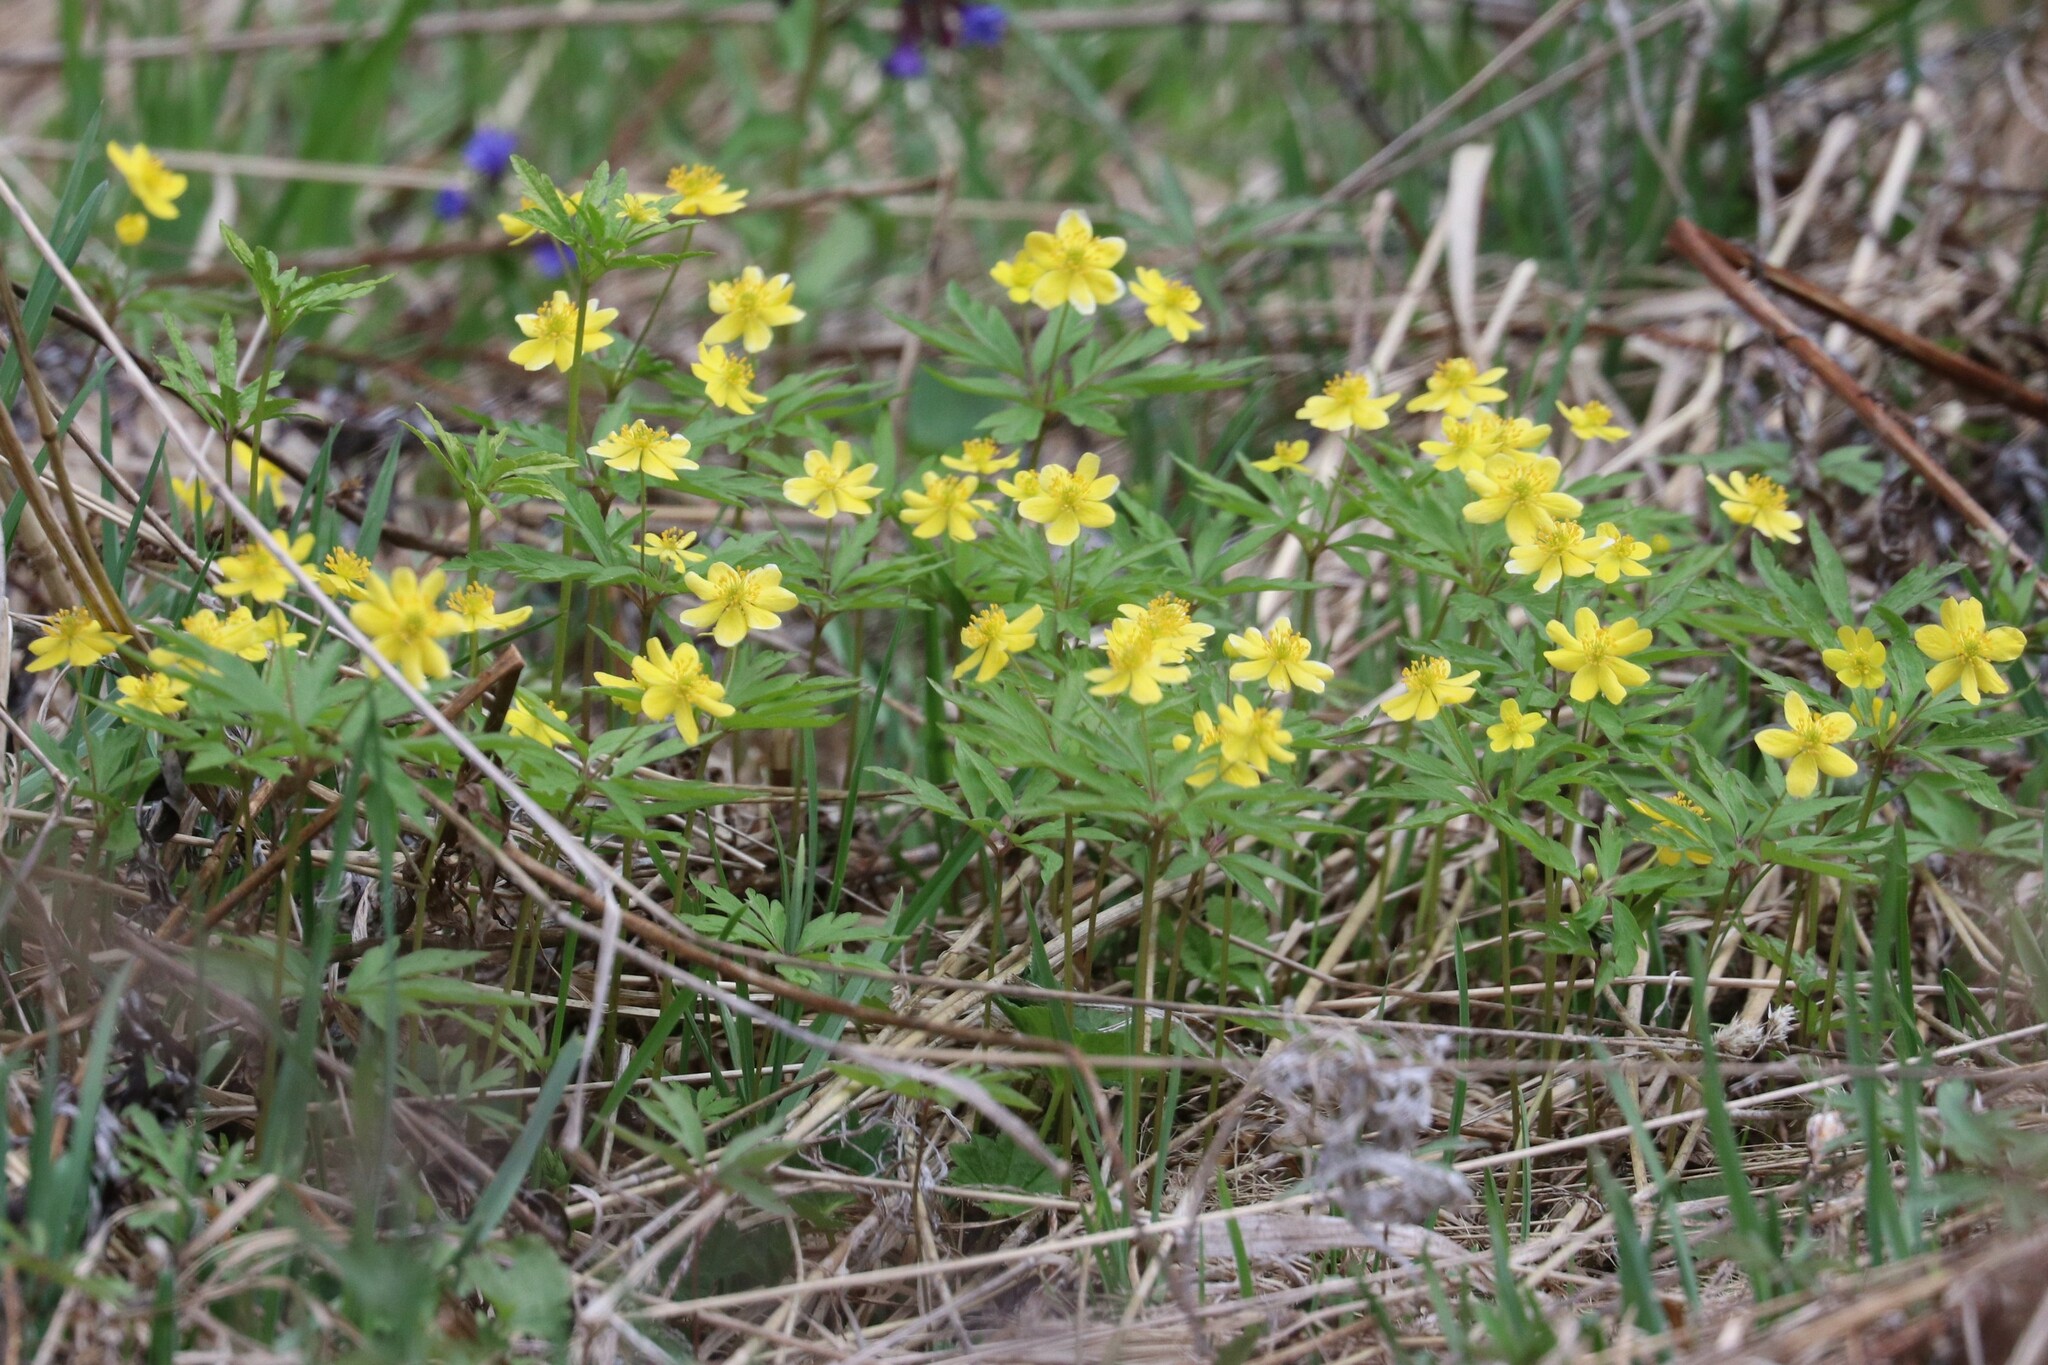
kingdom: Plantae
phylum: Tracheophyta
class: Magnoliopsida
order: Ranunculales
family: Ranunculaceae
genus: Anemone
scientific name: Anemone ranunculoides
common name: Yellow anemone
